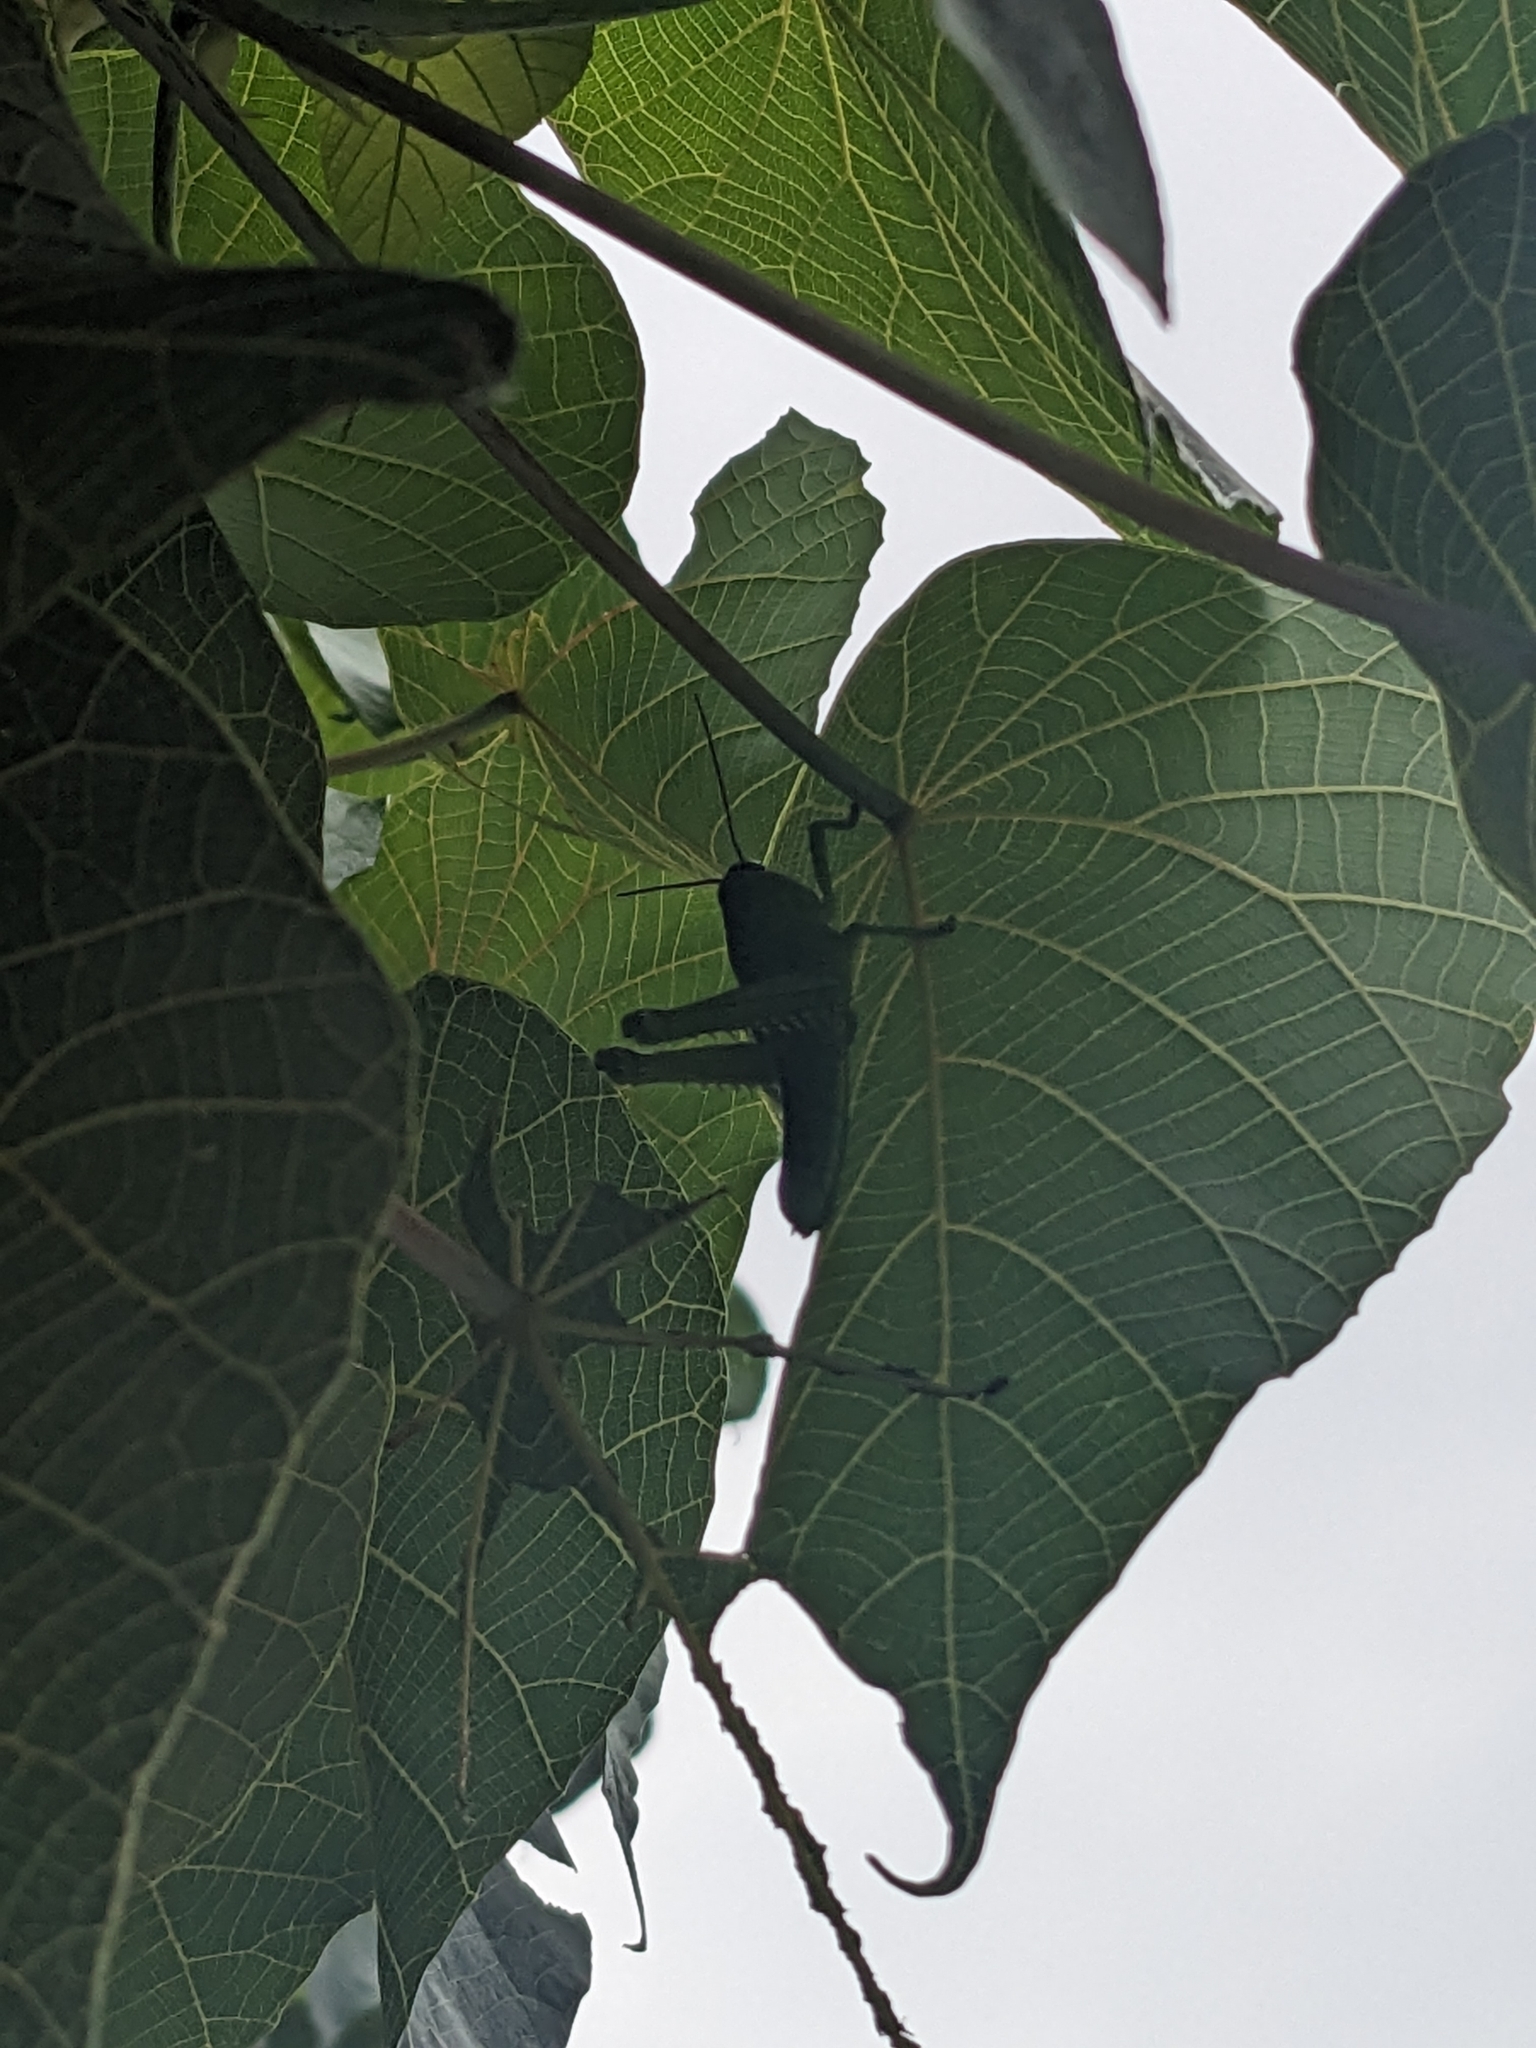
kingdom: Plantae
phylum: Tracheophyta
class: Magnoliopsida
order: Malpighiales
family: Euphorbiaceae
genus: Macaranga
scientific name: Macaranga tanarius
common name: Parasol leaf tree
